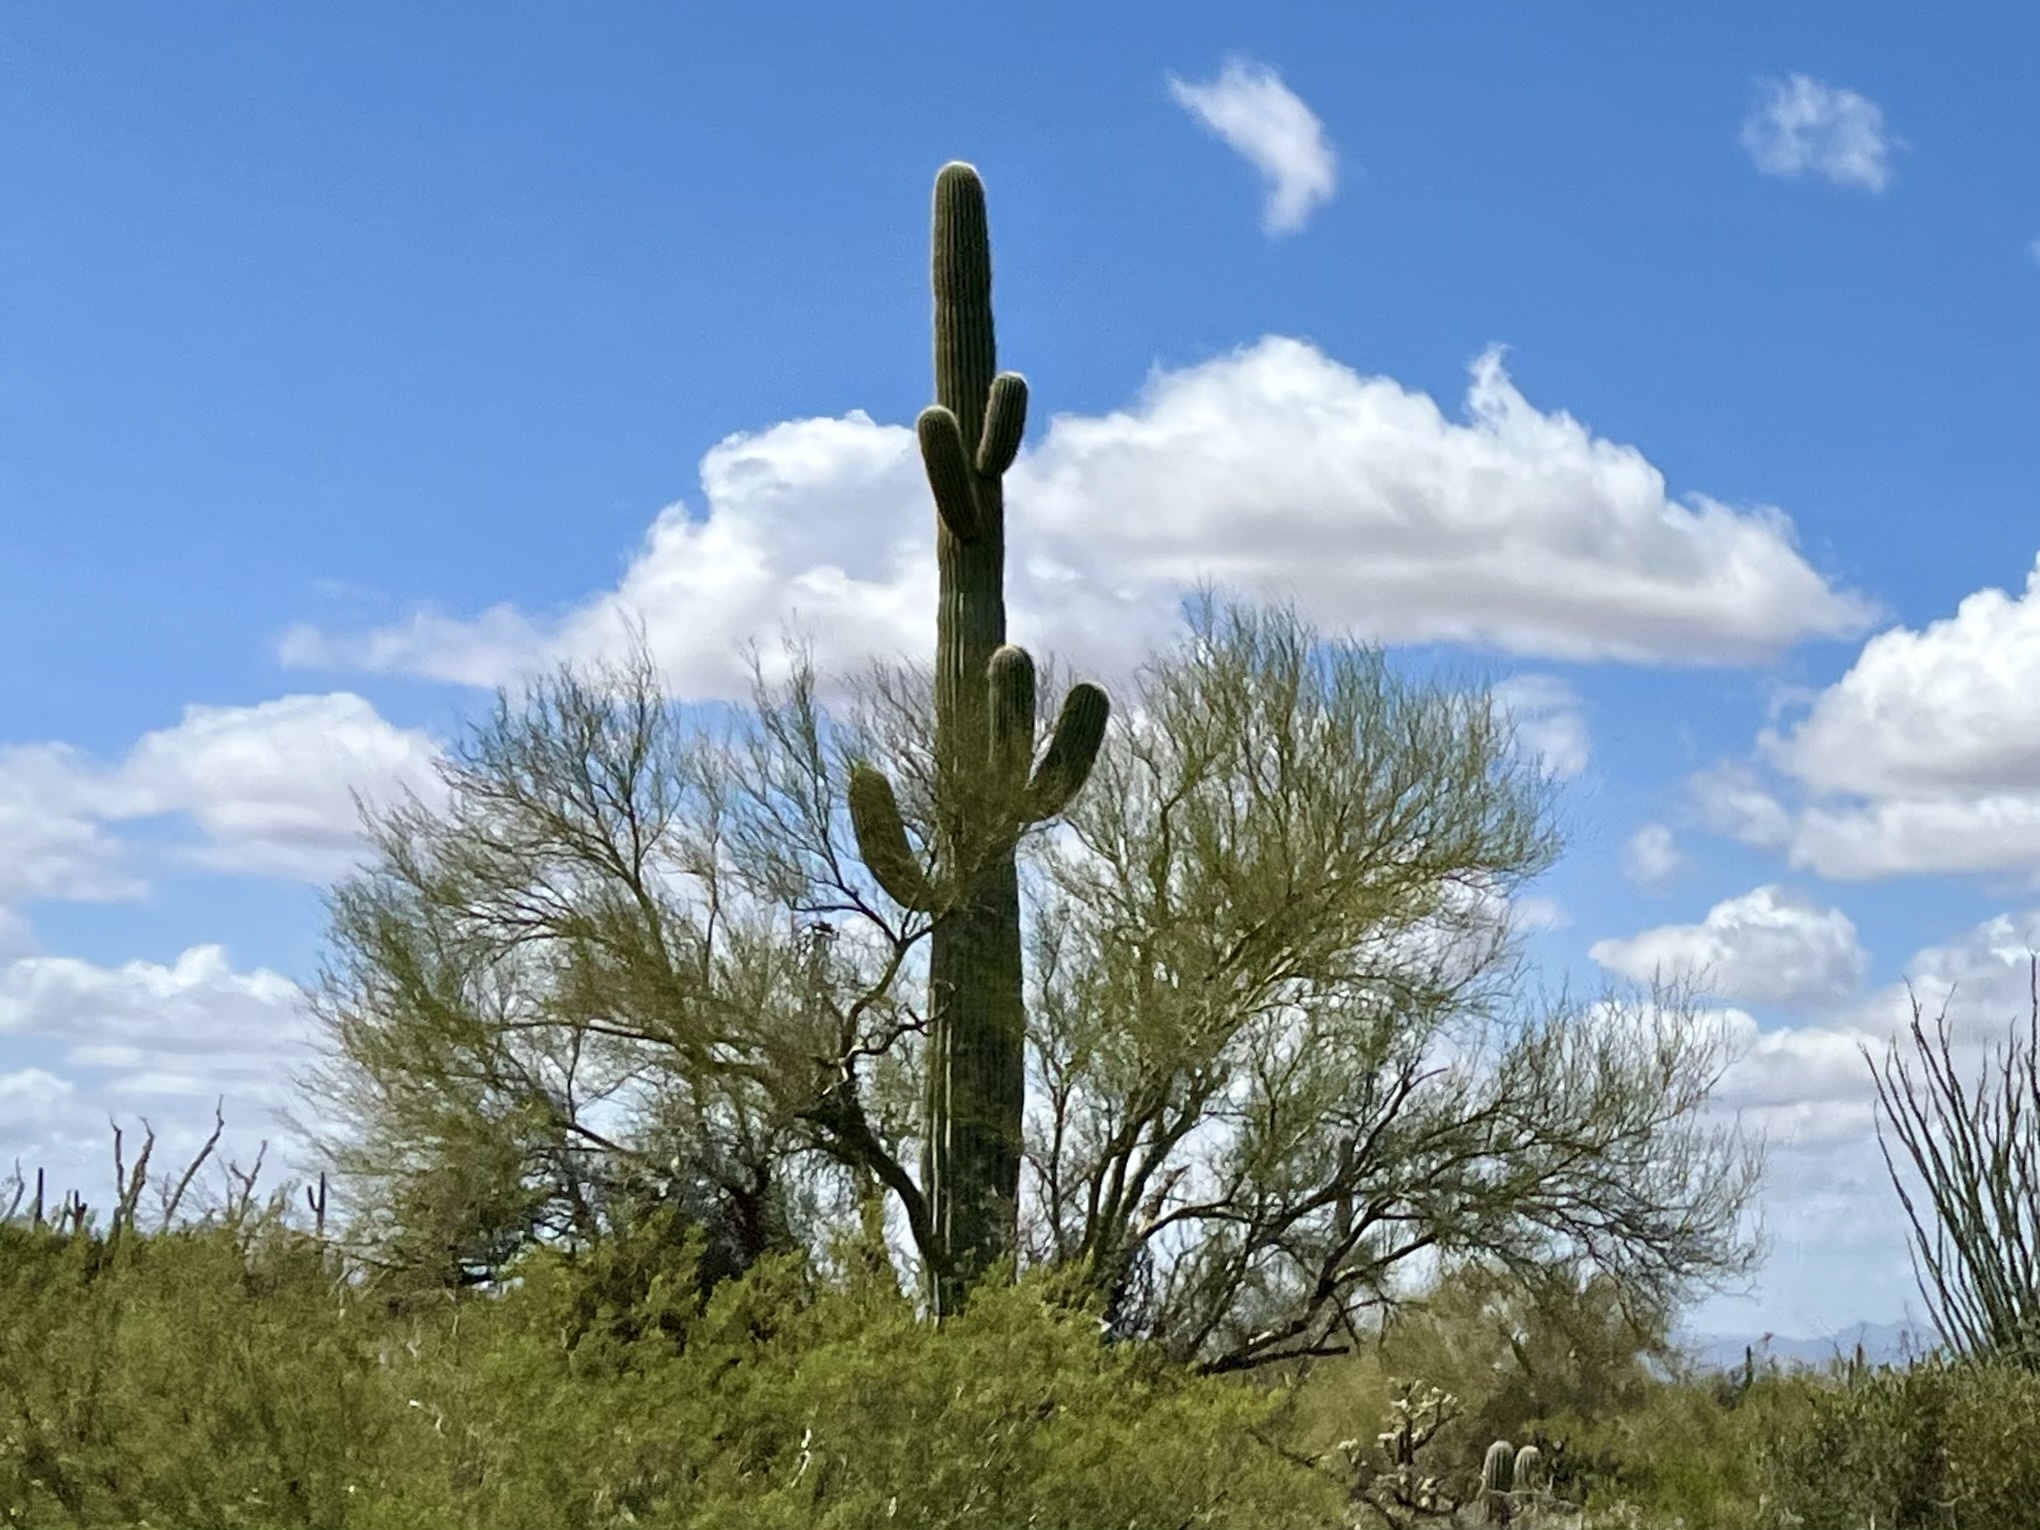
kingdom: Plantae
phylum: Tracheophyta
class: Magnoliopsida
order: Caryophyllales
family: Cactaceae
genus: Carnegiea
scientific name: Carnegiea gigantea
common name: Saguaro
